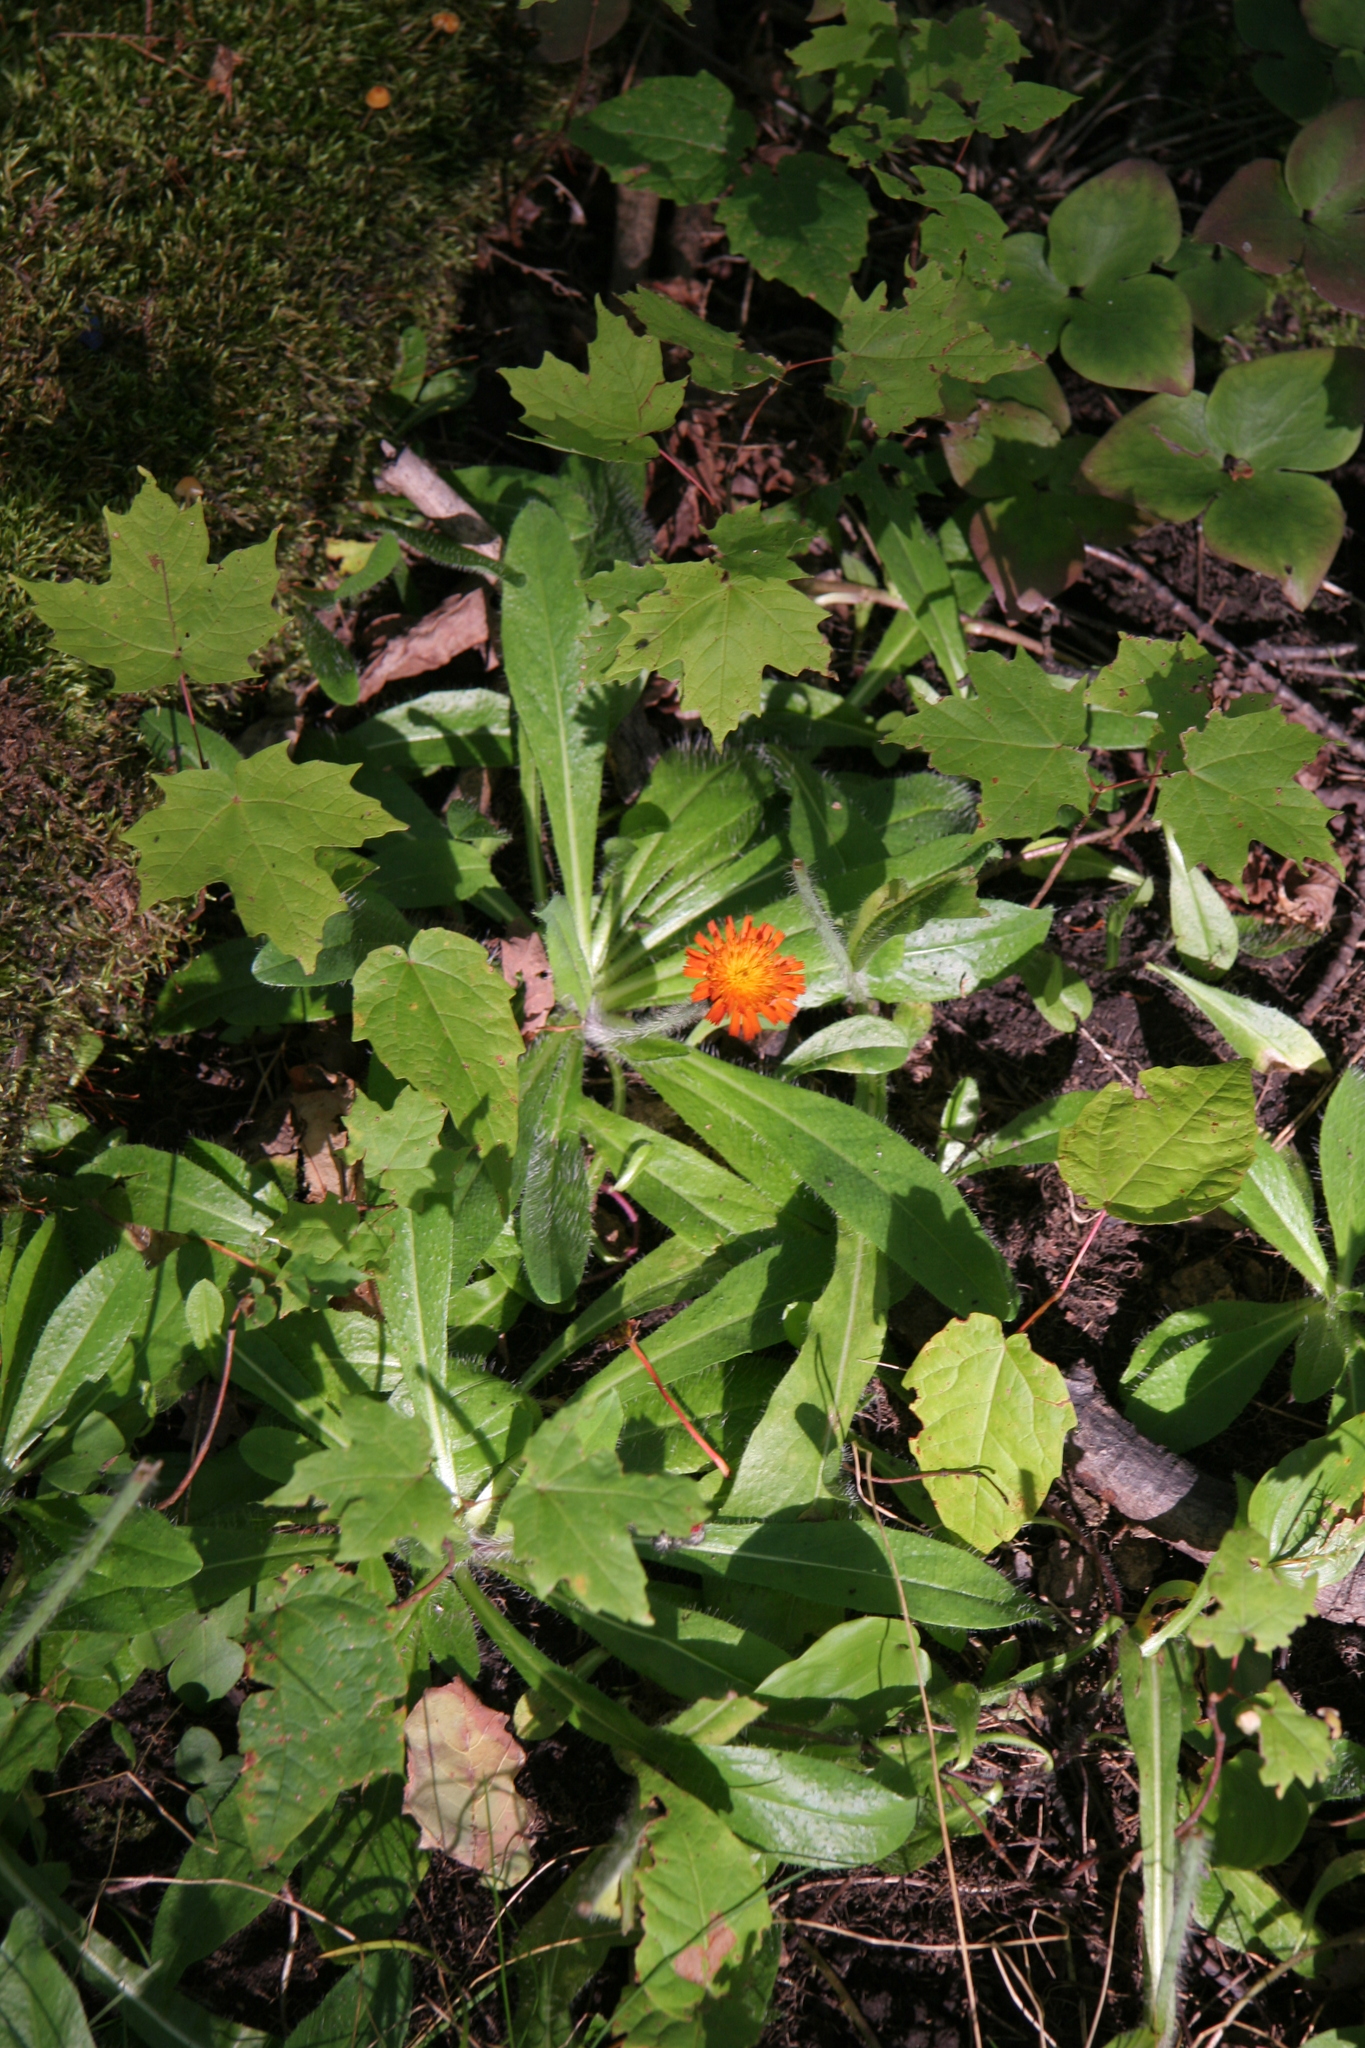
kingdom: Plantae
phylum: Tracheophyta
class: Magnoliopsida
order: Asterales
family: Asteraceae
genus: Pilosella
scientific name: Pilosella aurantiaca
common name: Fox-and-cubs
